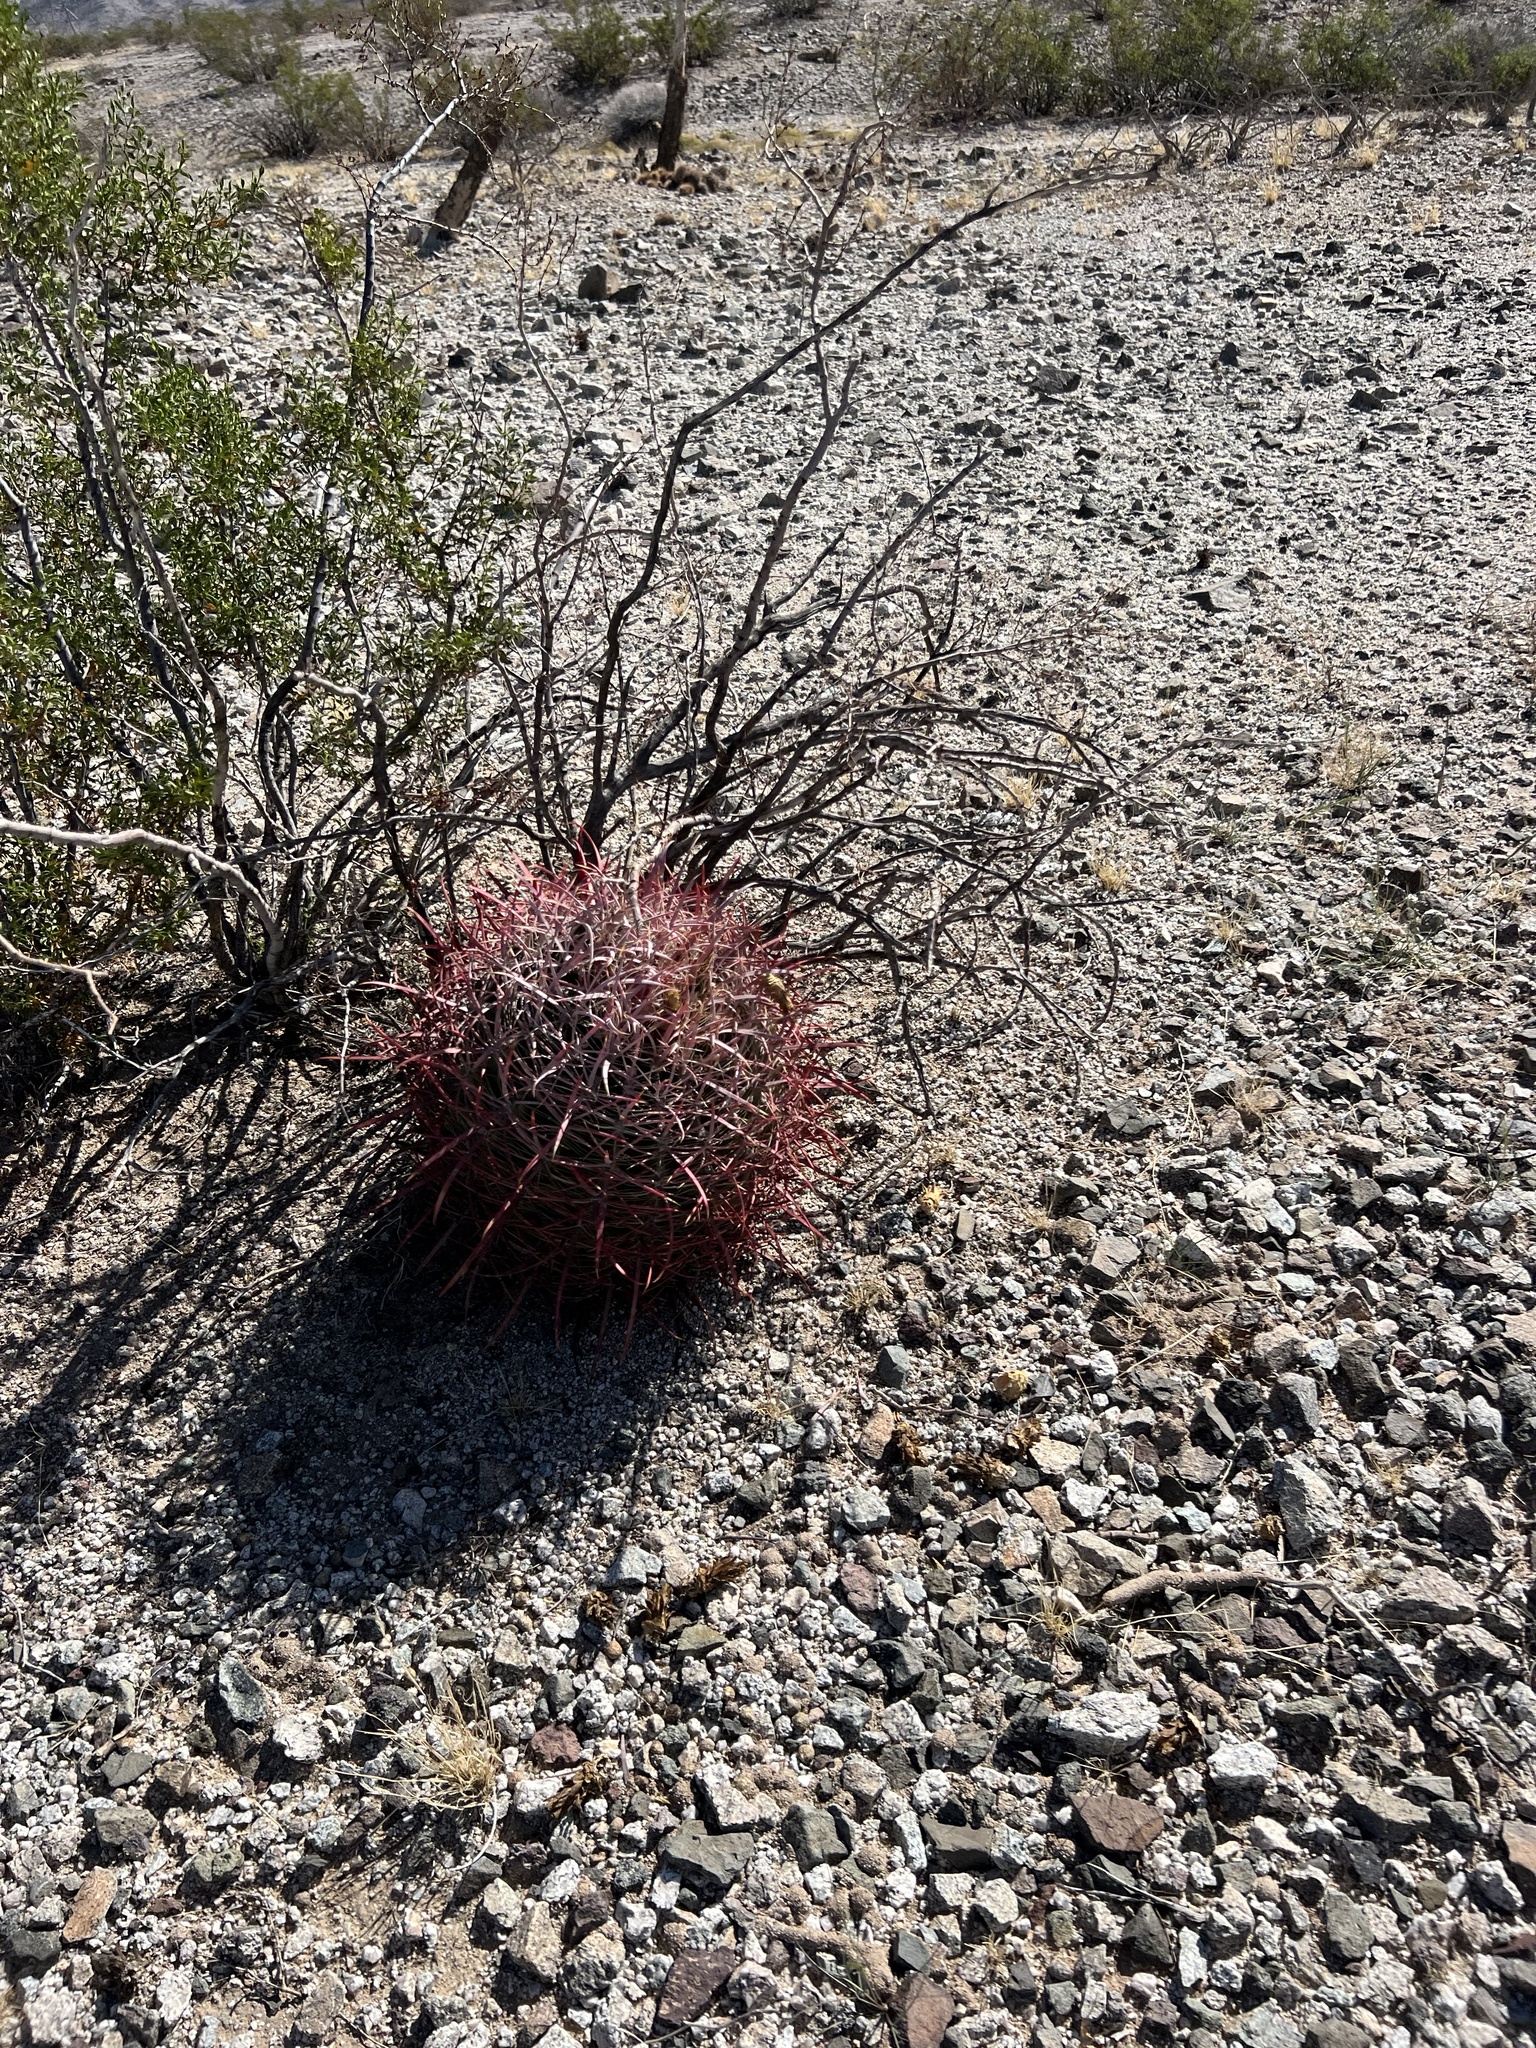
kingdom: Plantae
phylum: Tracheophyta
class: Magnoliopsida
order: Caryophyllales
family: Cactaceae
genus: Ferocactus
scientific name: Ferocactus cylindraceus
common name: California barrel cactus
